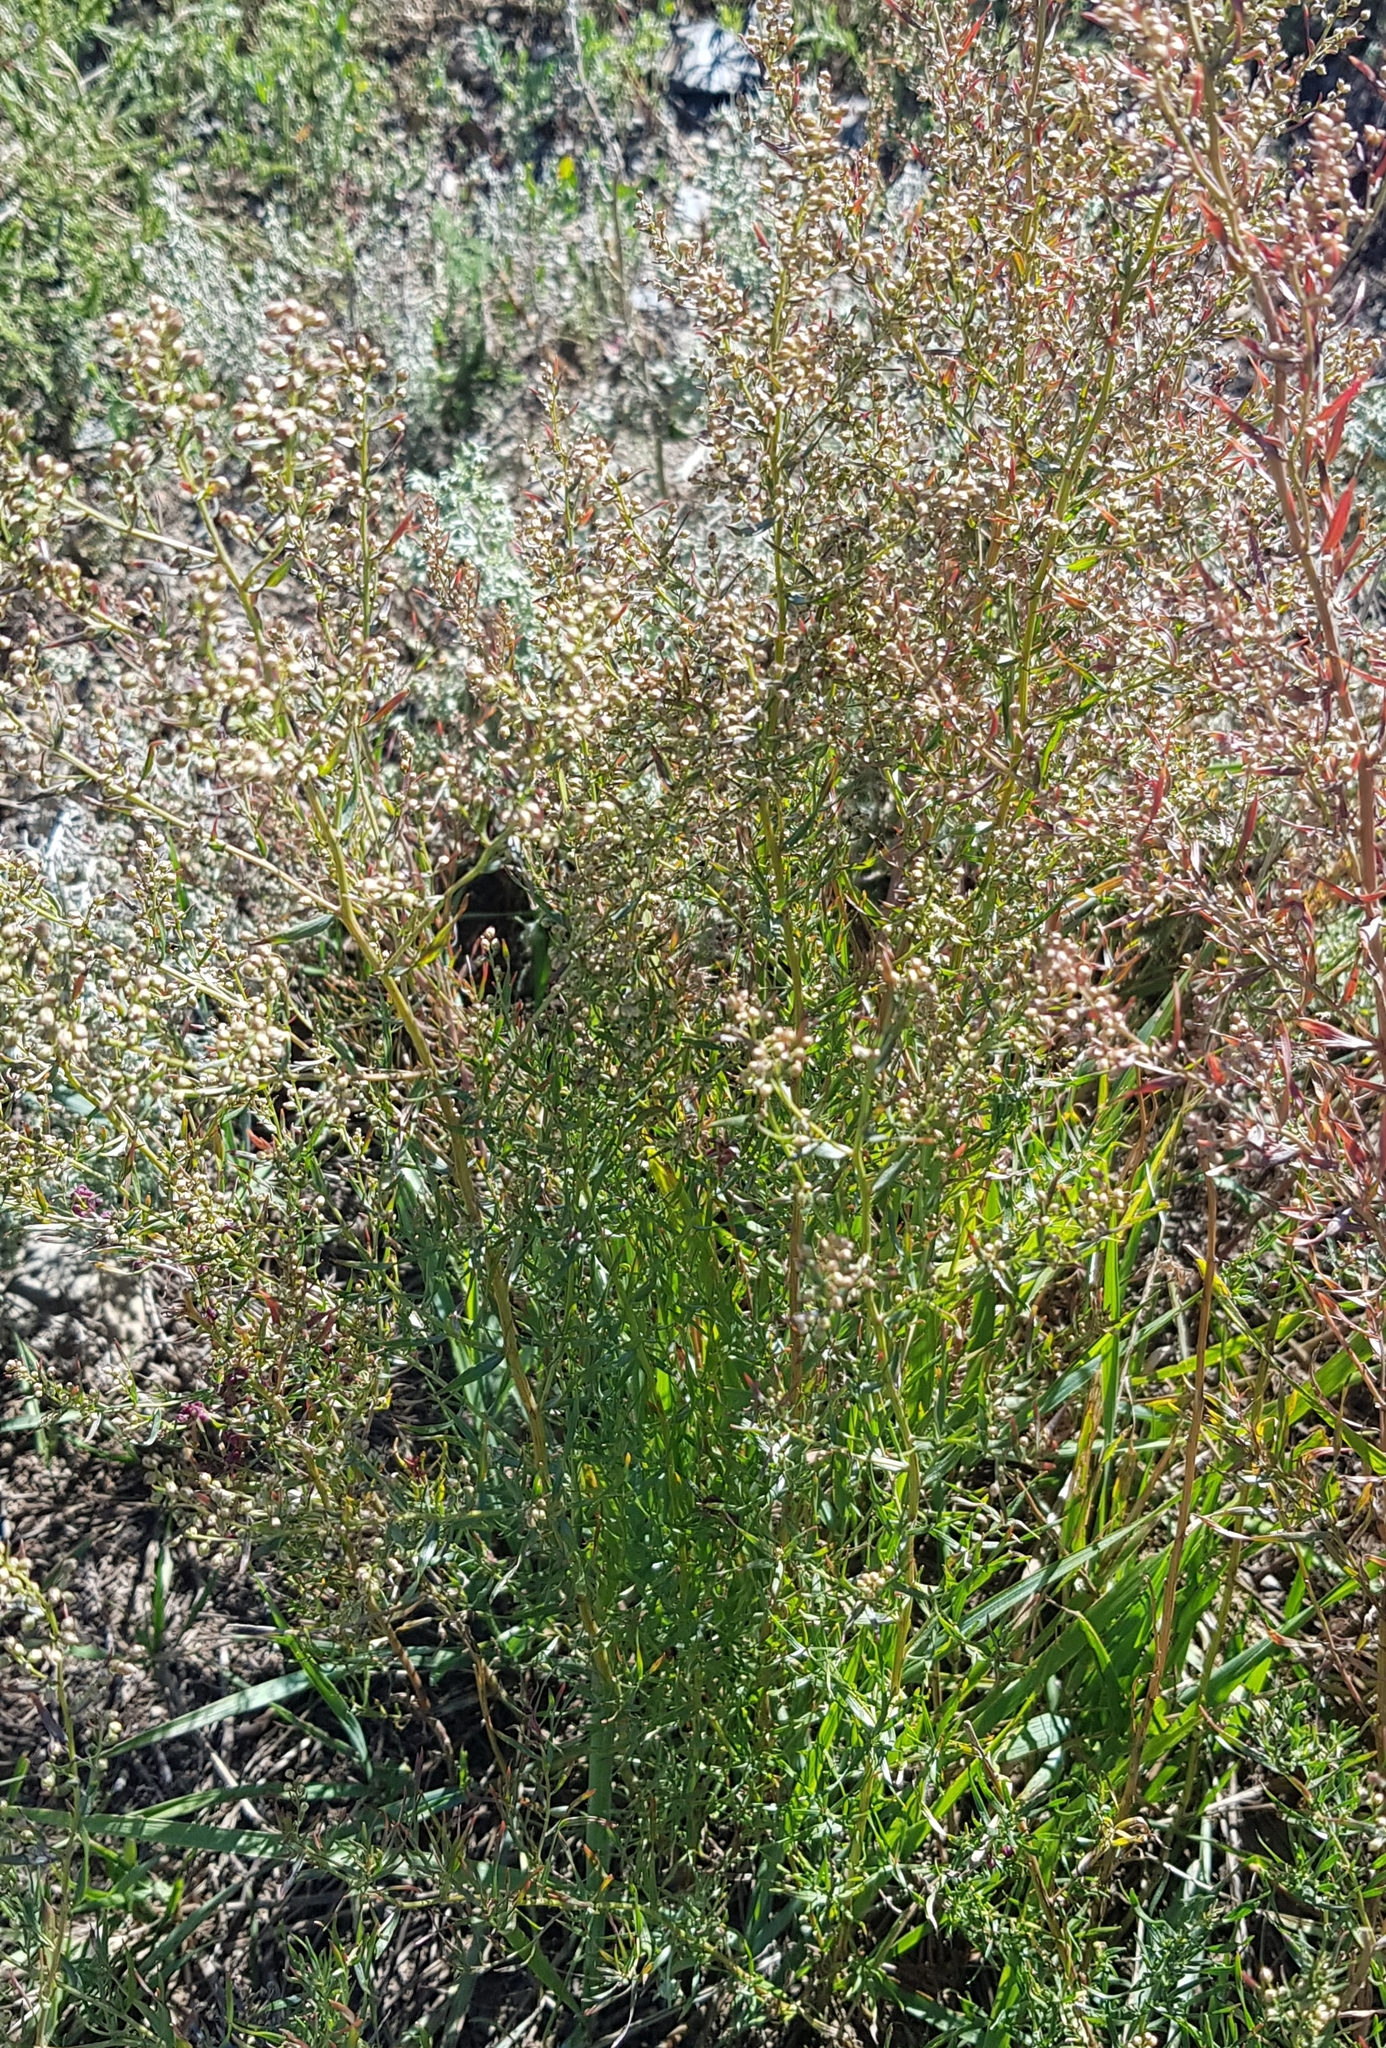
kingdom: Plantae
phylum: Tracheophyta
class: Magnoliopsida
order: Asterales
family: Asteraceae
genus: Artemisia
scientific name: Artemisia dracunculus
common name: Tarragon
